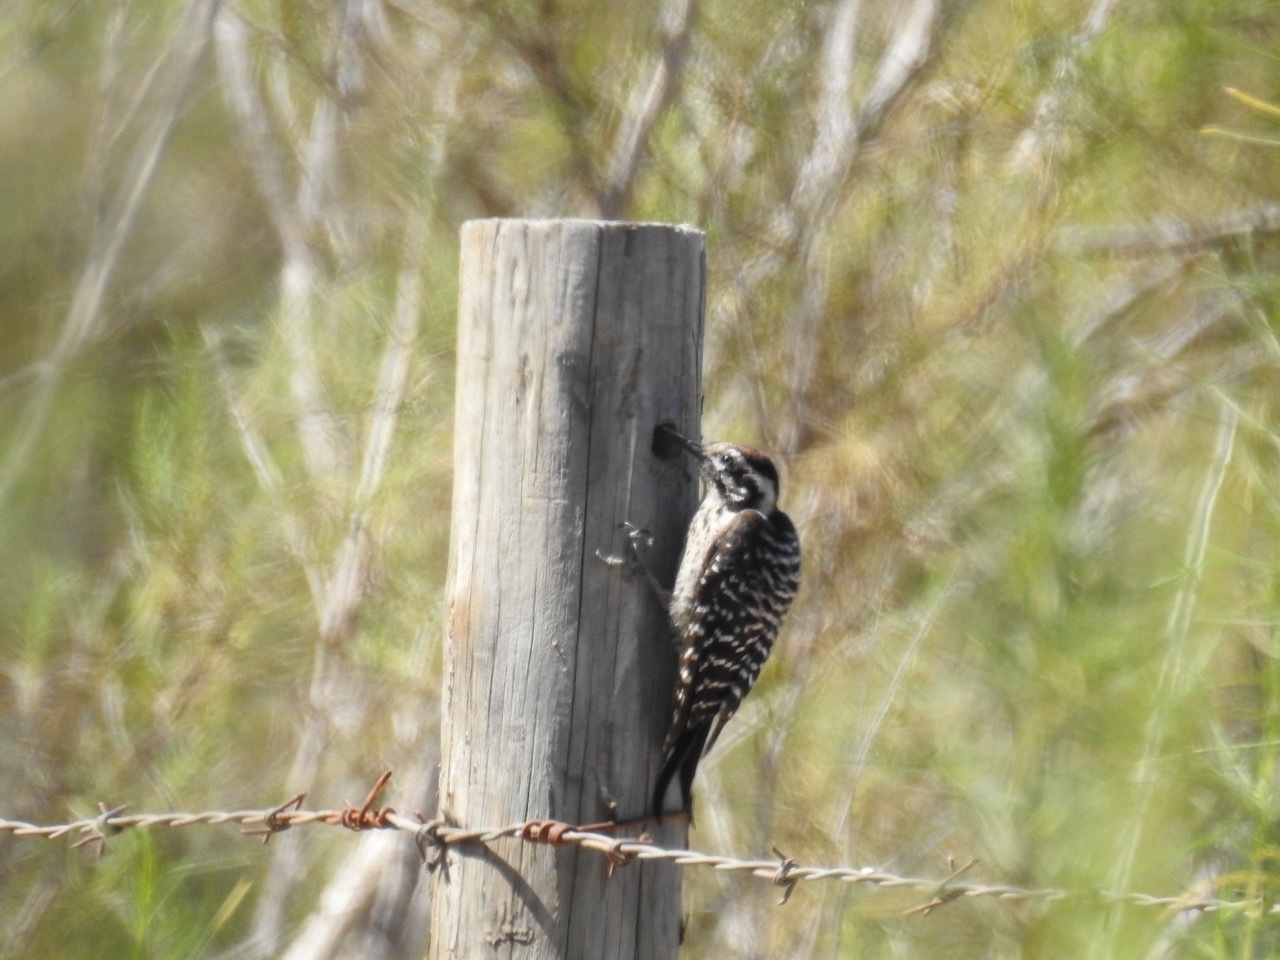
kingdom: Animalia
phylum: Chordata
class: Aves
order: Piciformes
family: Picidae
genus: Dryobates
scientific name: Dryobates scalaris
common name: Ladder-backed woodpecker
